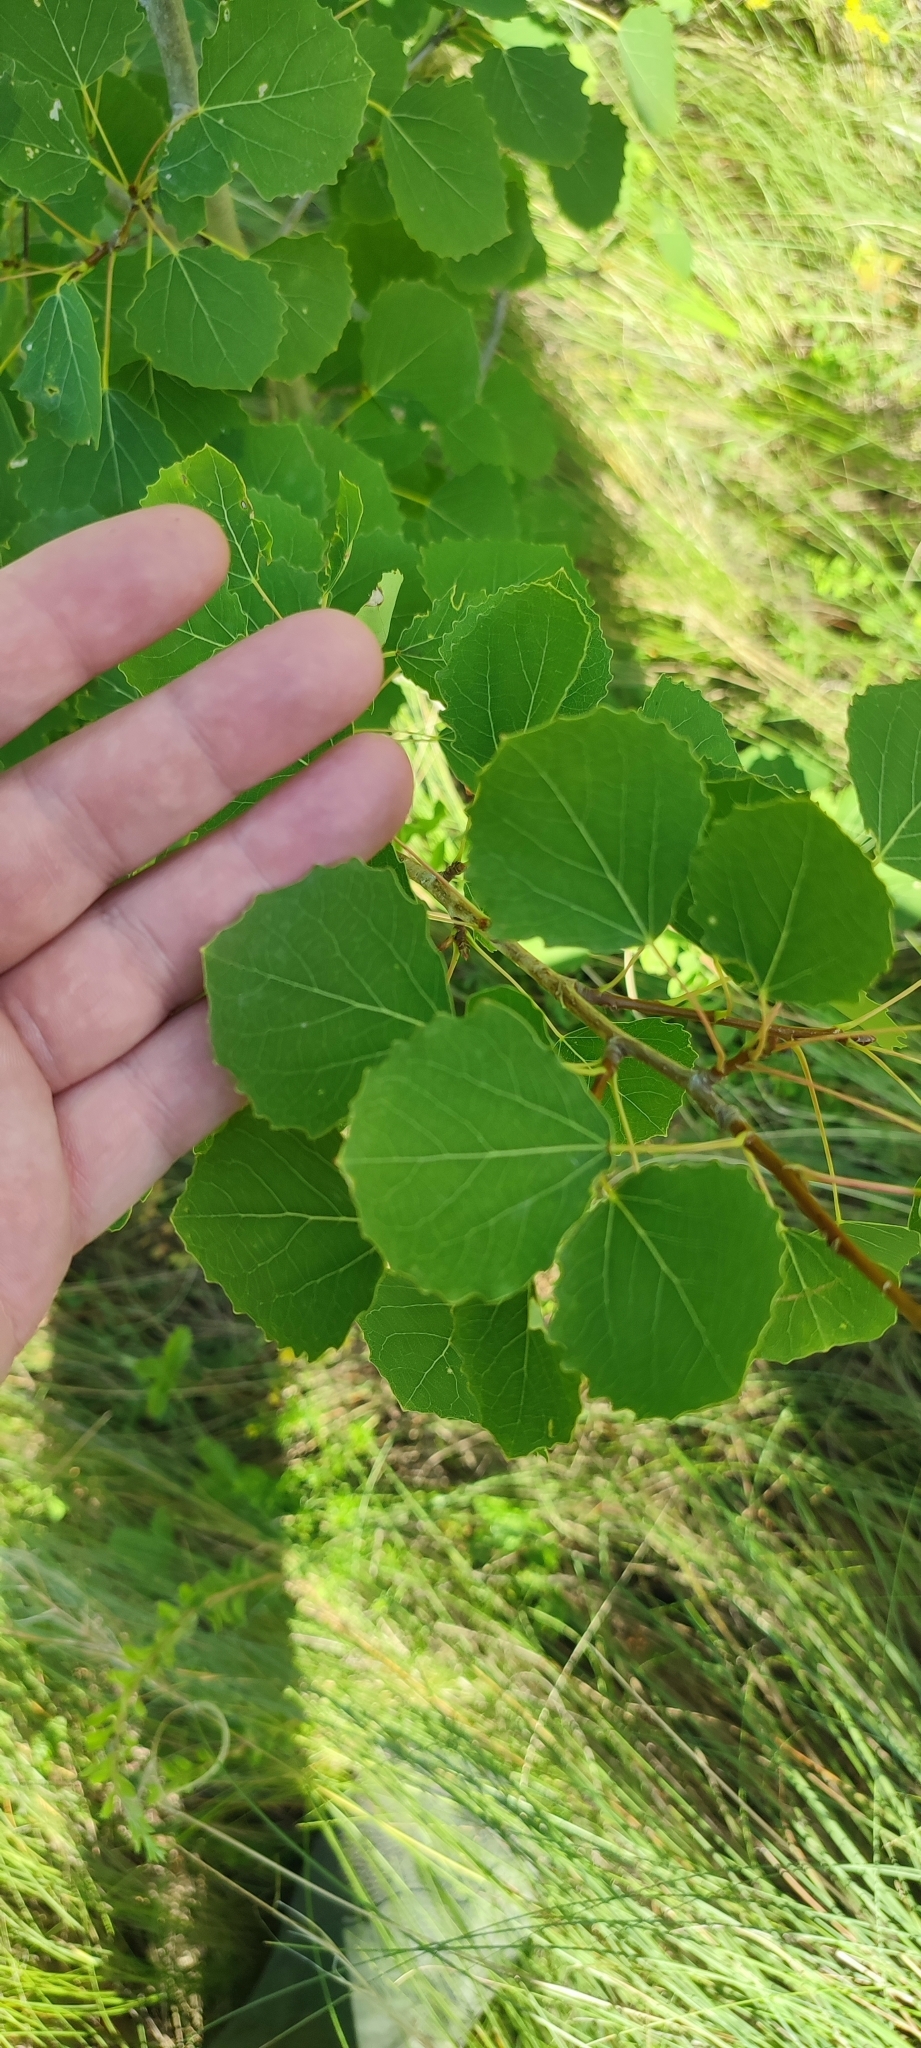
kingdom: Plantae
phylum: Tracheophyta
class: Magnoliopsida
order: Malpighiales
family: Salicaceae
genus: Populus
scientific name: Populus tremula
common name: European aspen
